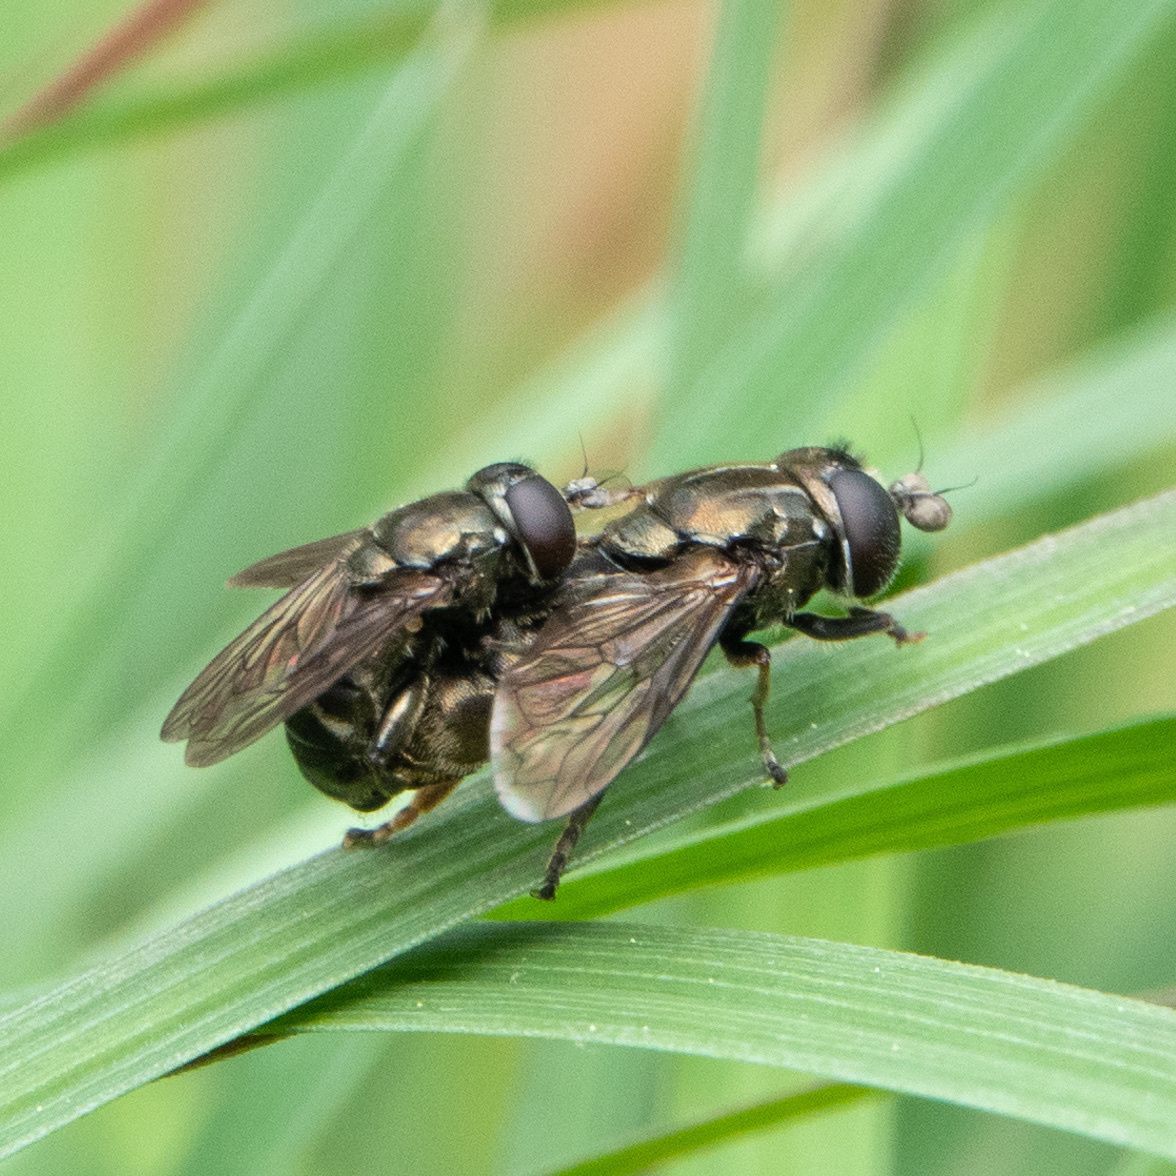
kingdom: Animalia
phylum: Arthropoda
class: Insecta
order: Diptera
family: Syrphidae
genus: Eumerus
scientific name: Eumerus
